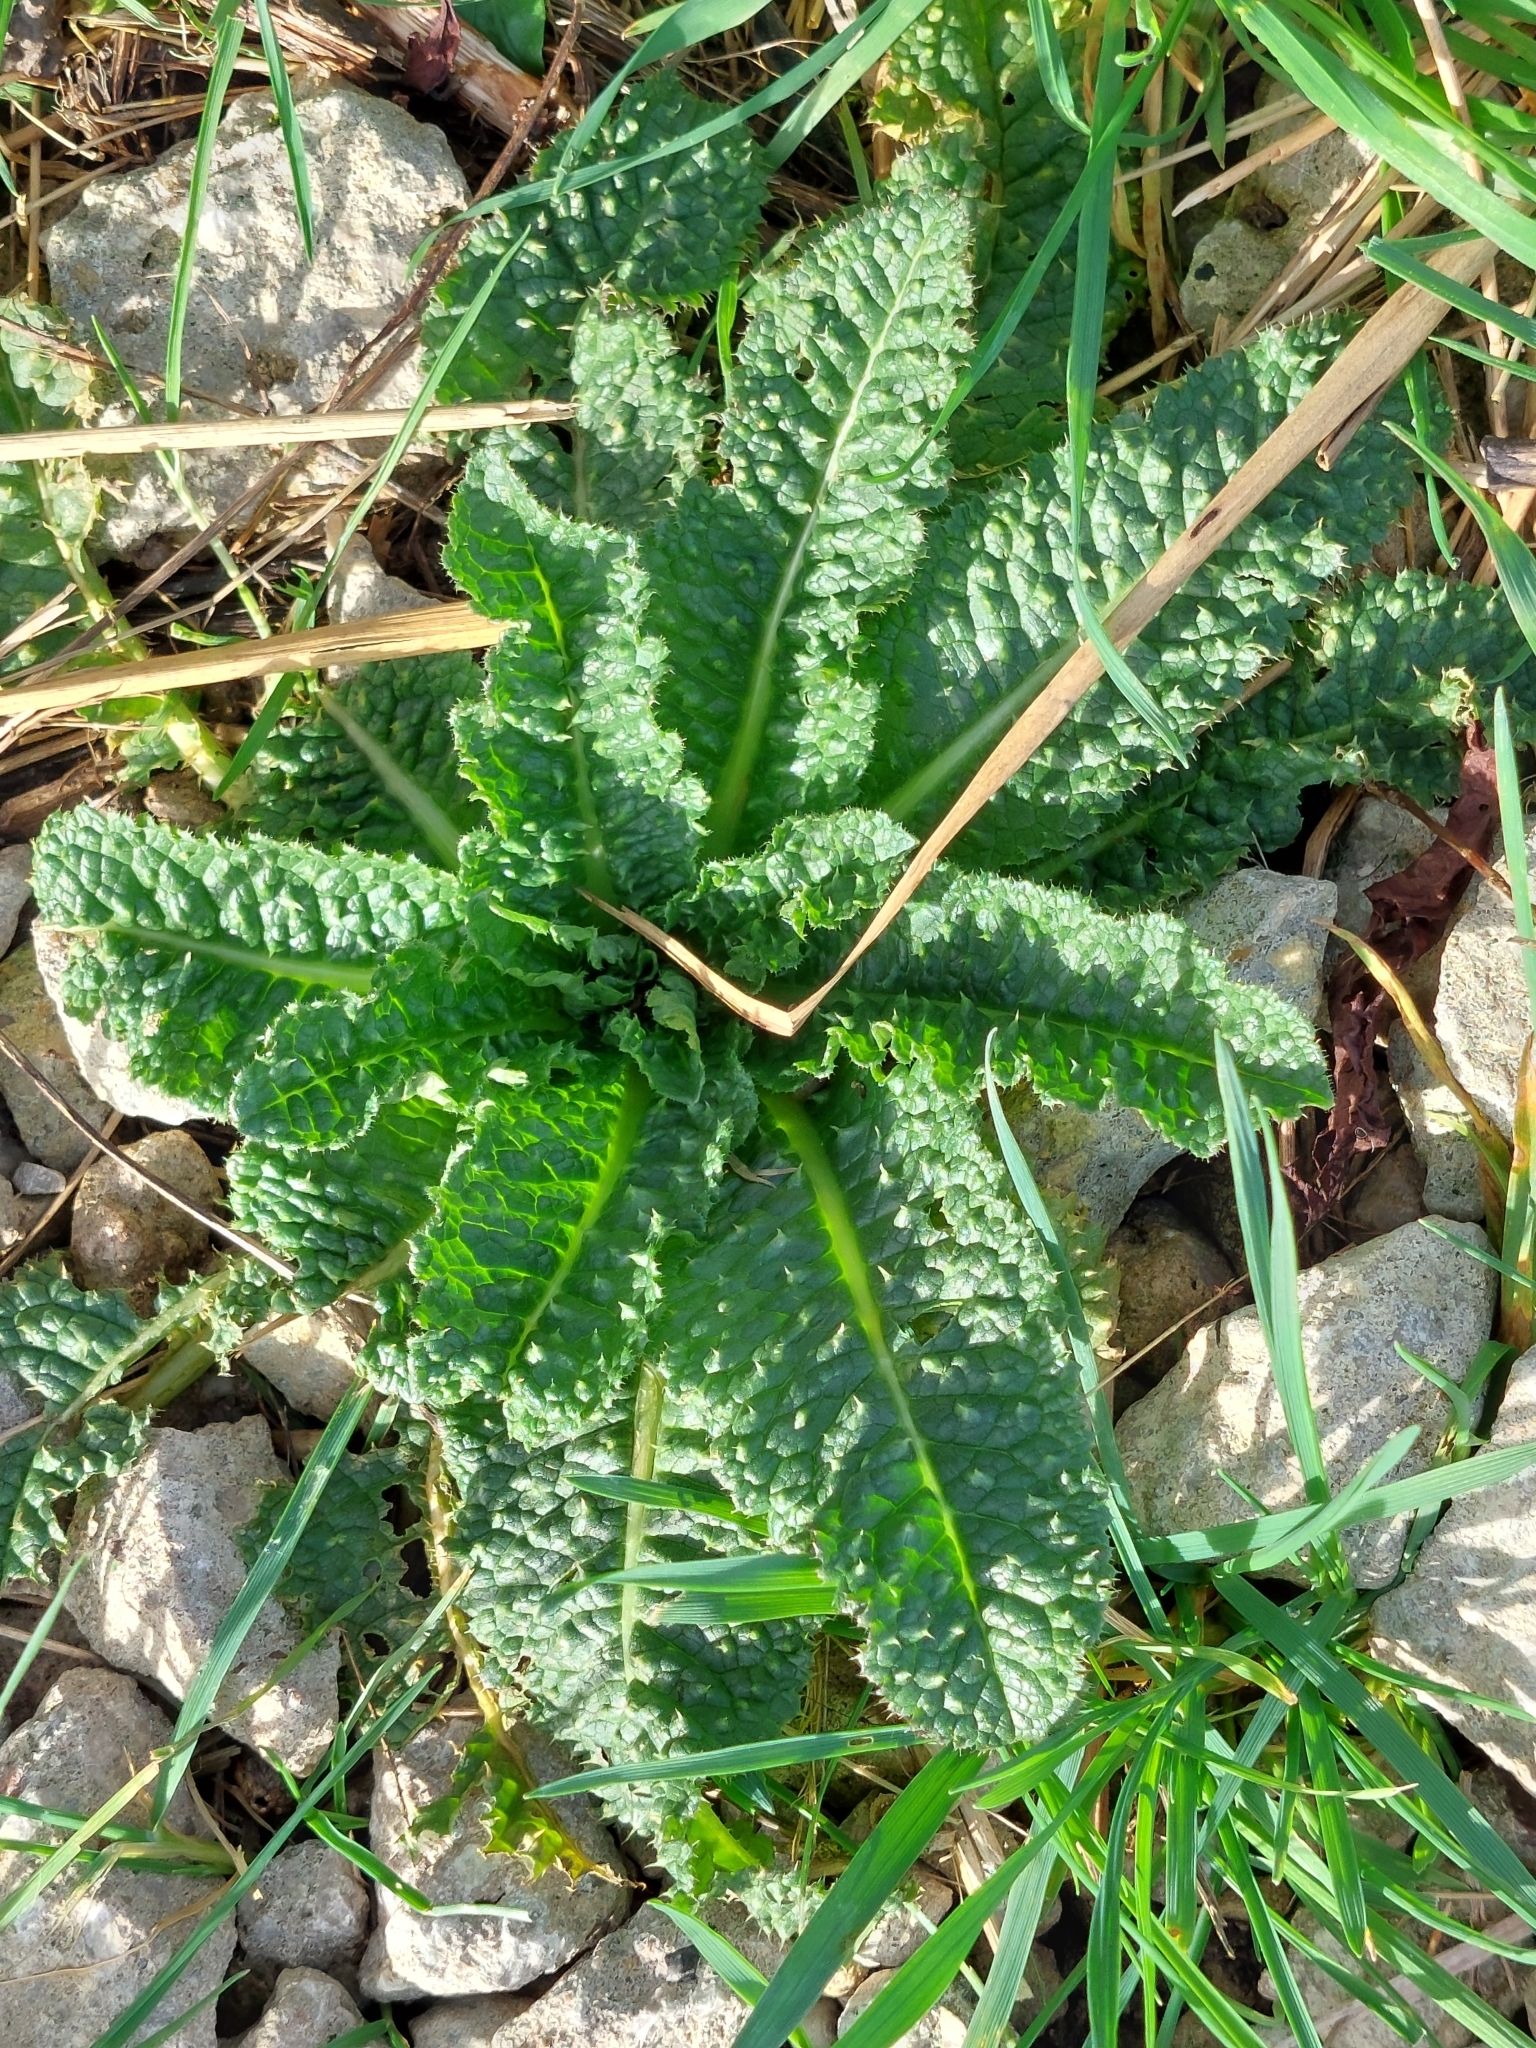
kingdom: Plantae
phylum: Tracheophyta
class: Magnoliopsida
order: Dipsacales
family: Caprifoliaceae
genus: Dipsacus
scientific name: Dipsacus fullonum
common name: Teasel
